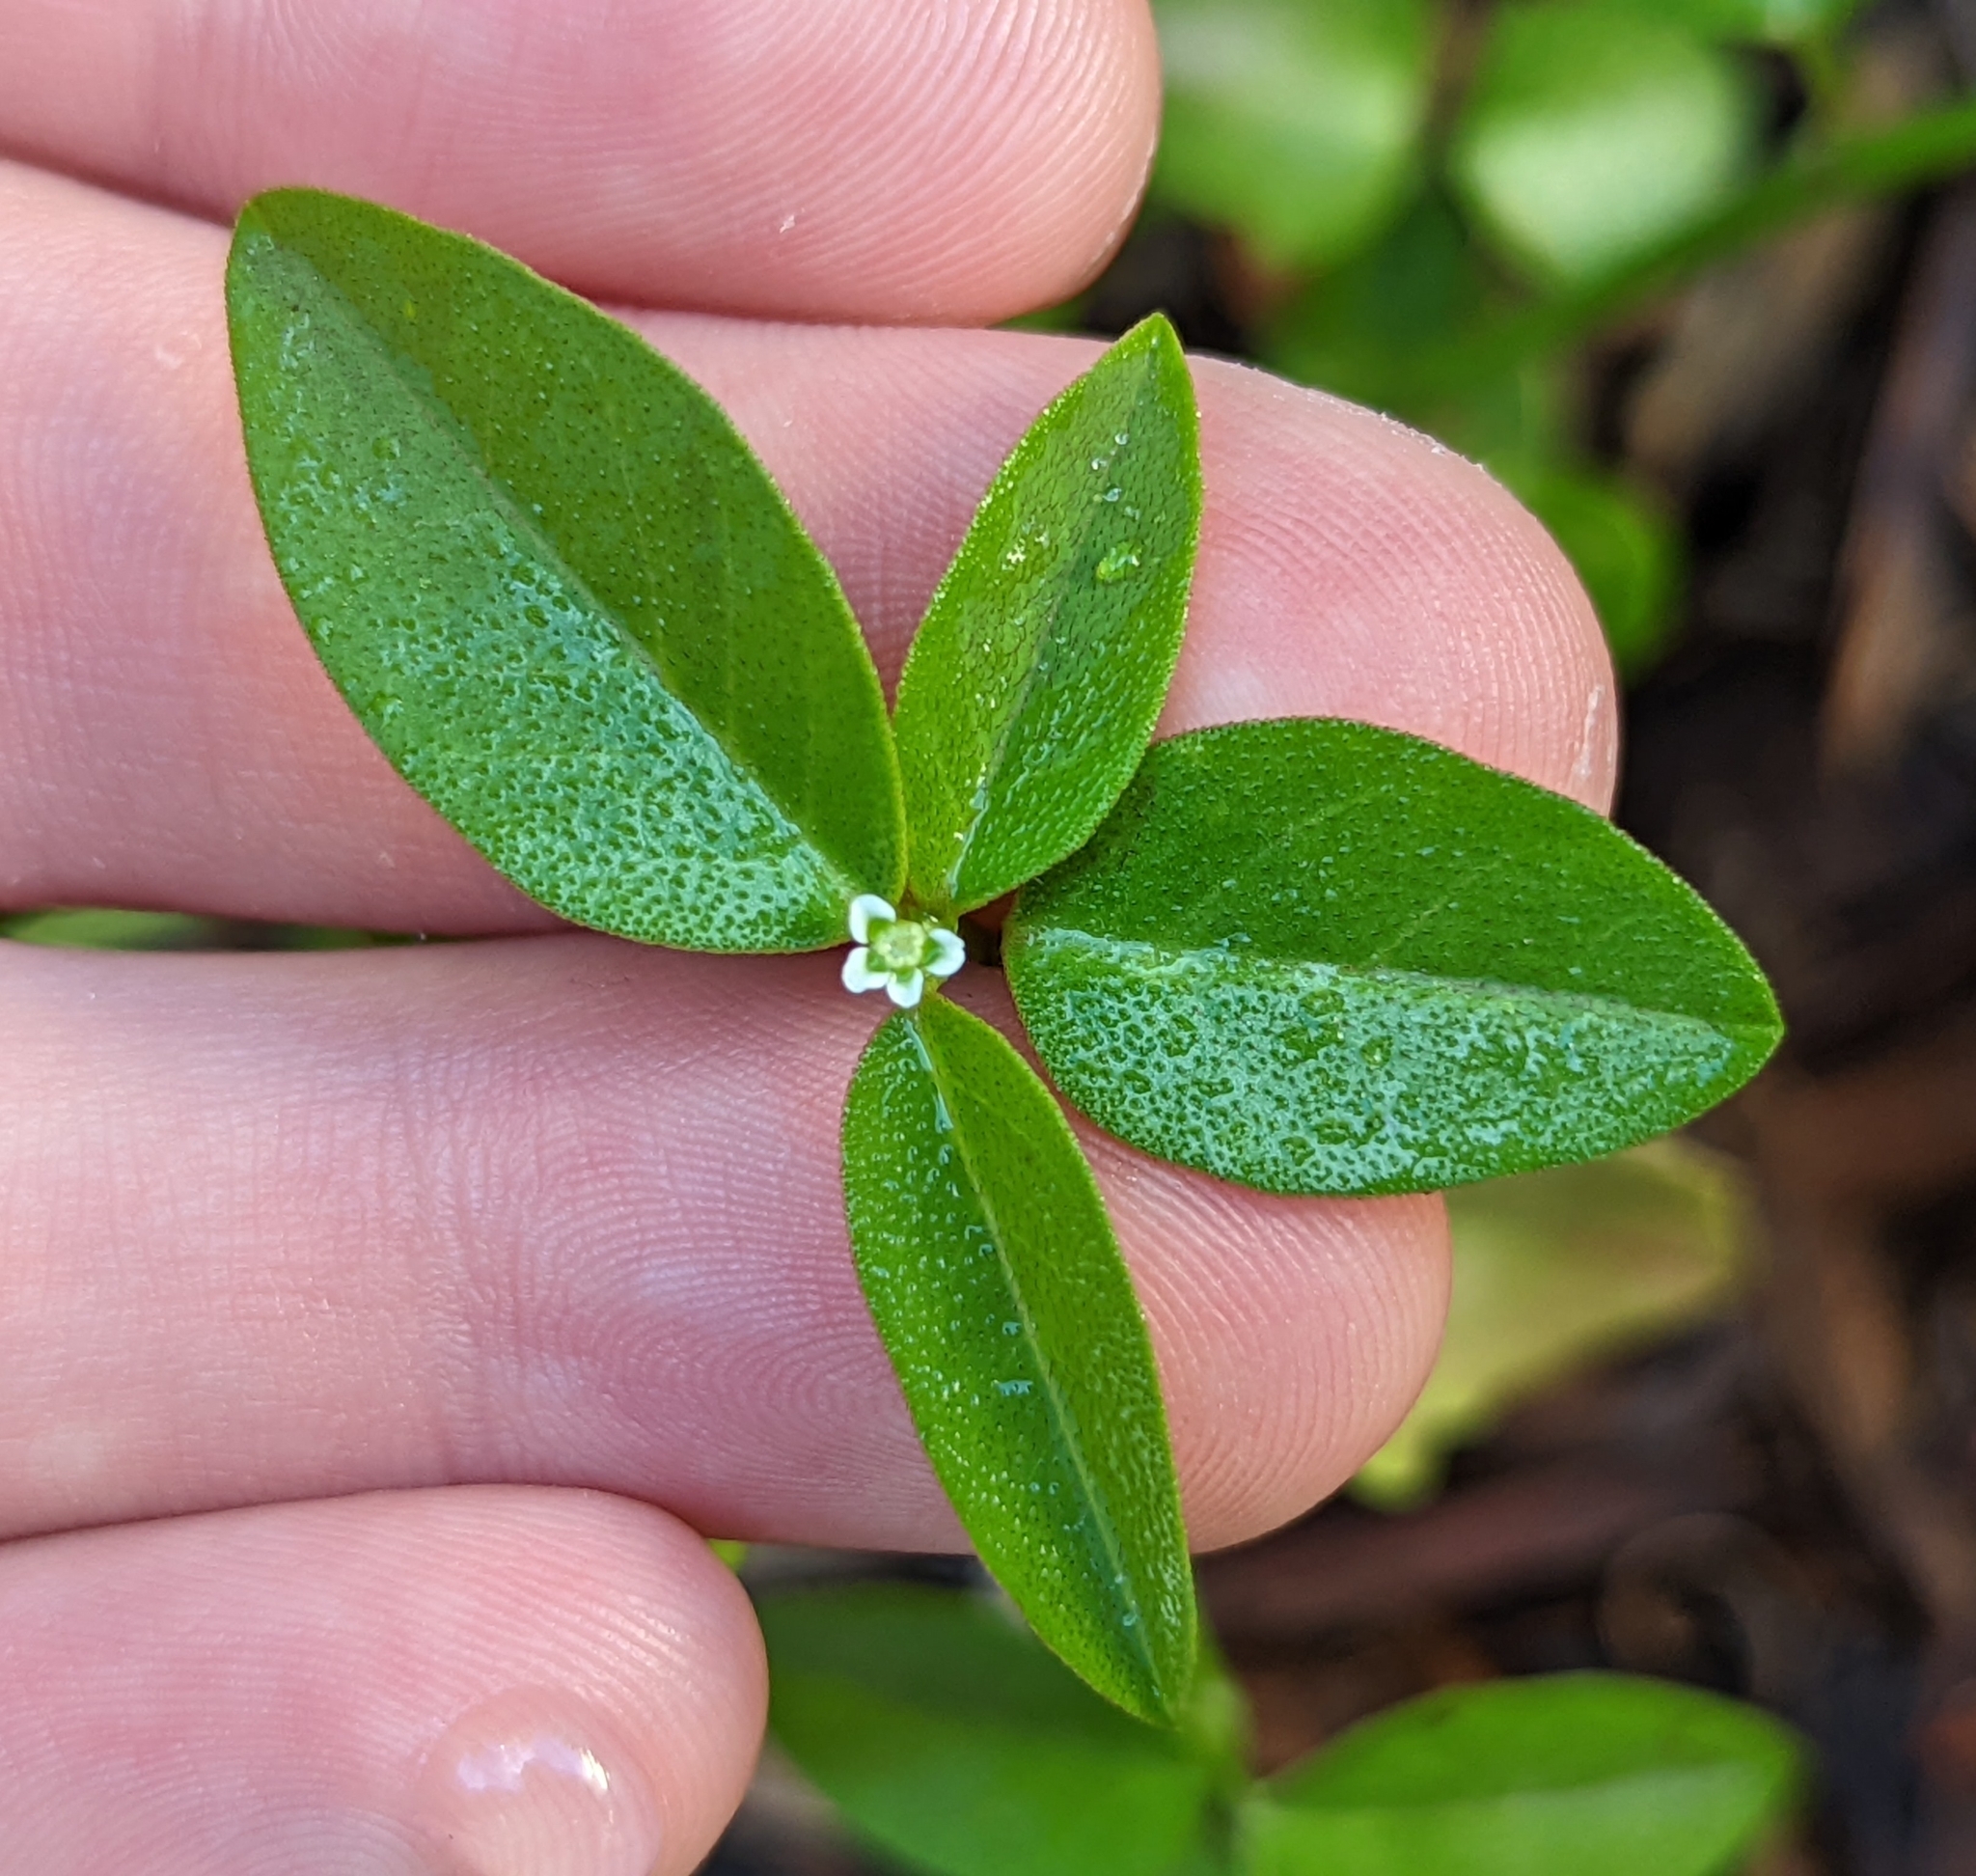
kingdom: Plantae
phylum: Tracheophyta
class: Magnoliopsida
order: Malpighiales
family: Euphorbiaceae
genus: Euphorbia
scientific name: Euphorbia graminea
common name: Grassleaf spurge
